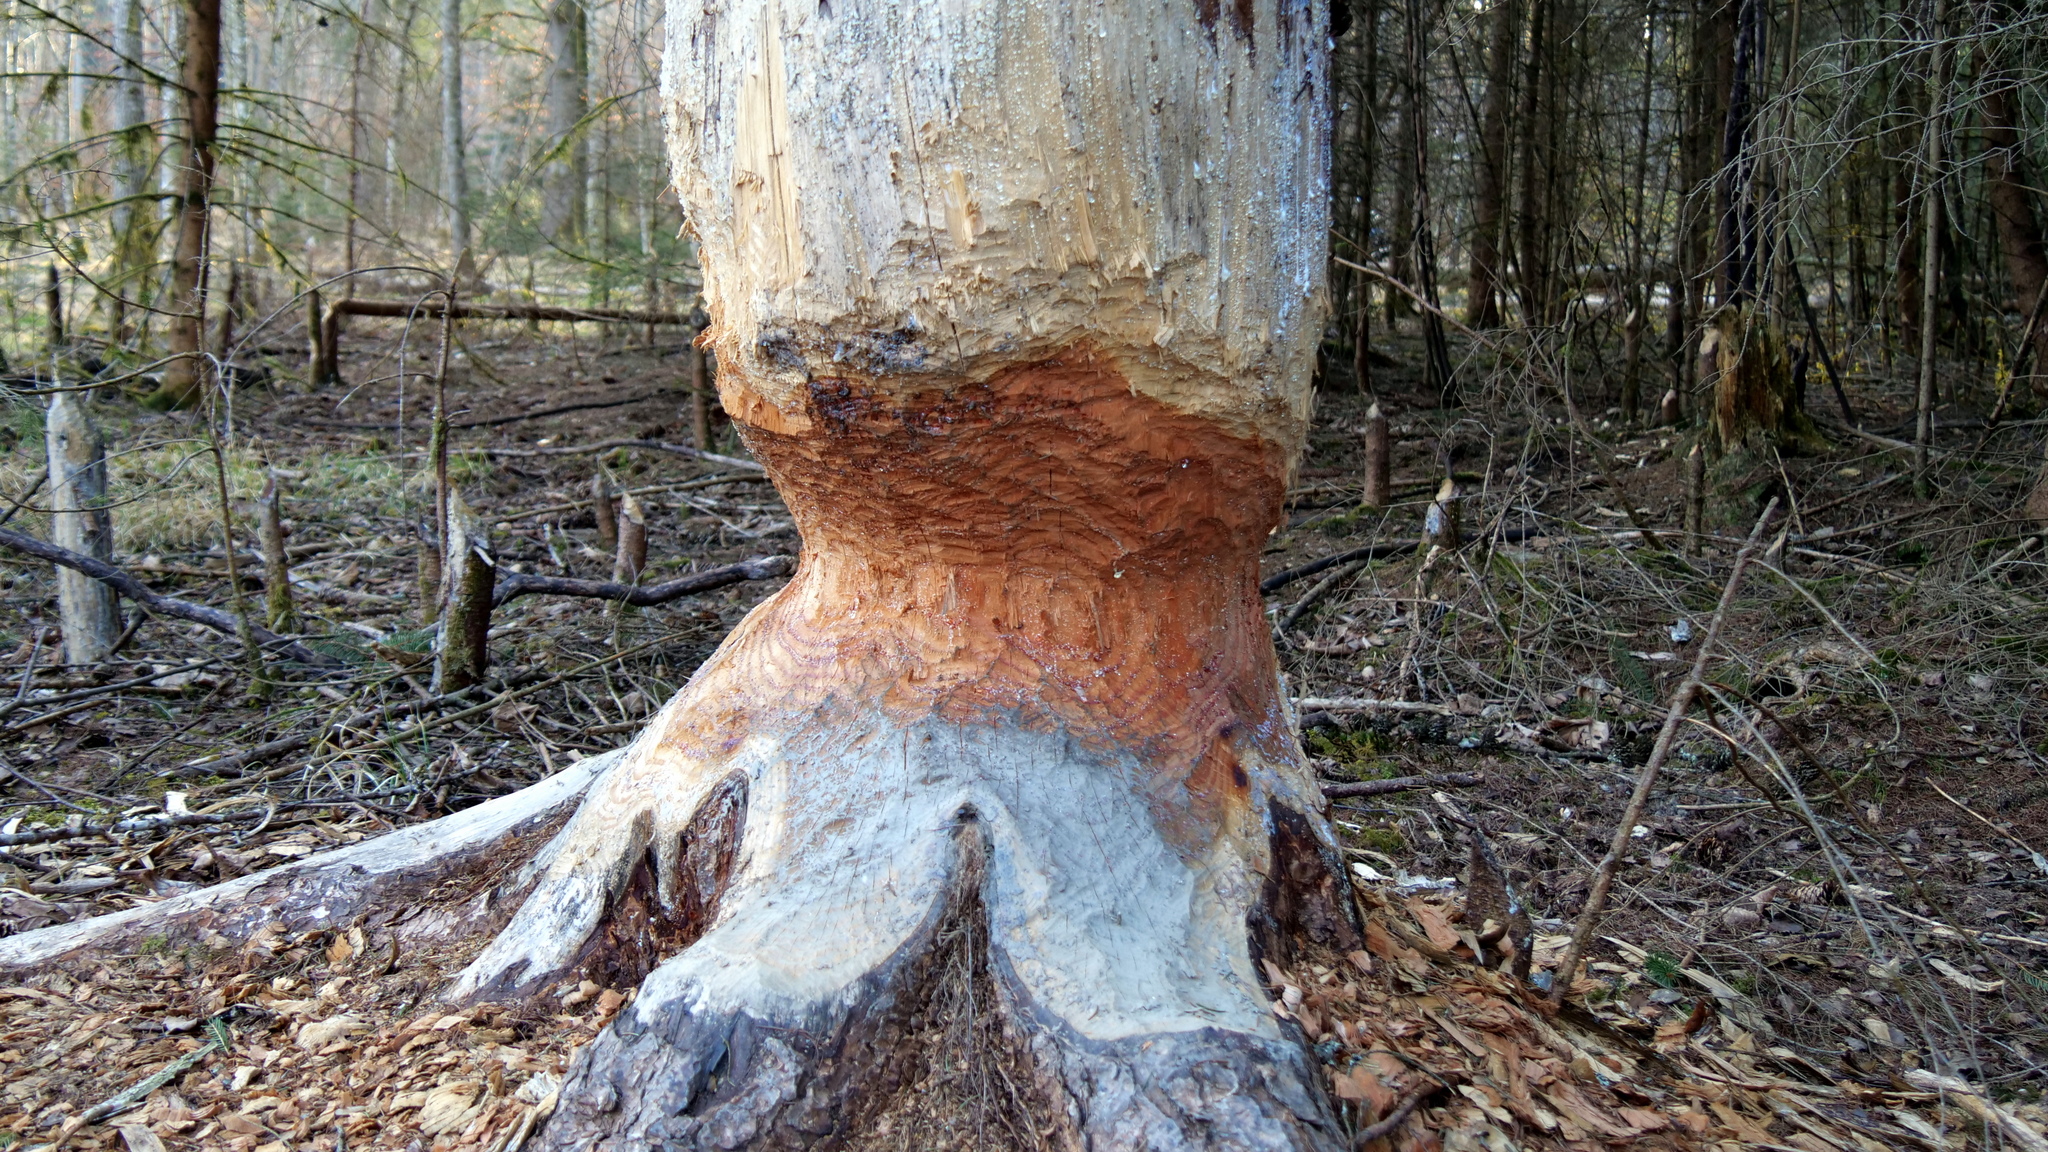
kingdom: Animalia
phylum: Chordata
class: Mammalia
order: Rodentia
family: Castoridae
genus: Castor
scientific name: Castor fiber
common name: Eurasian beaver
